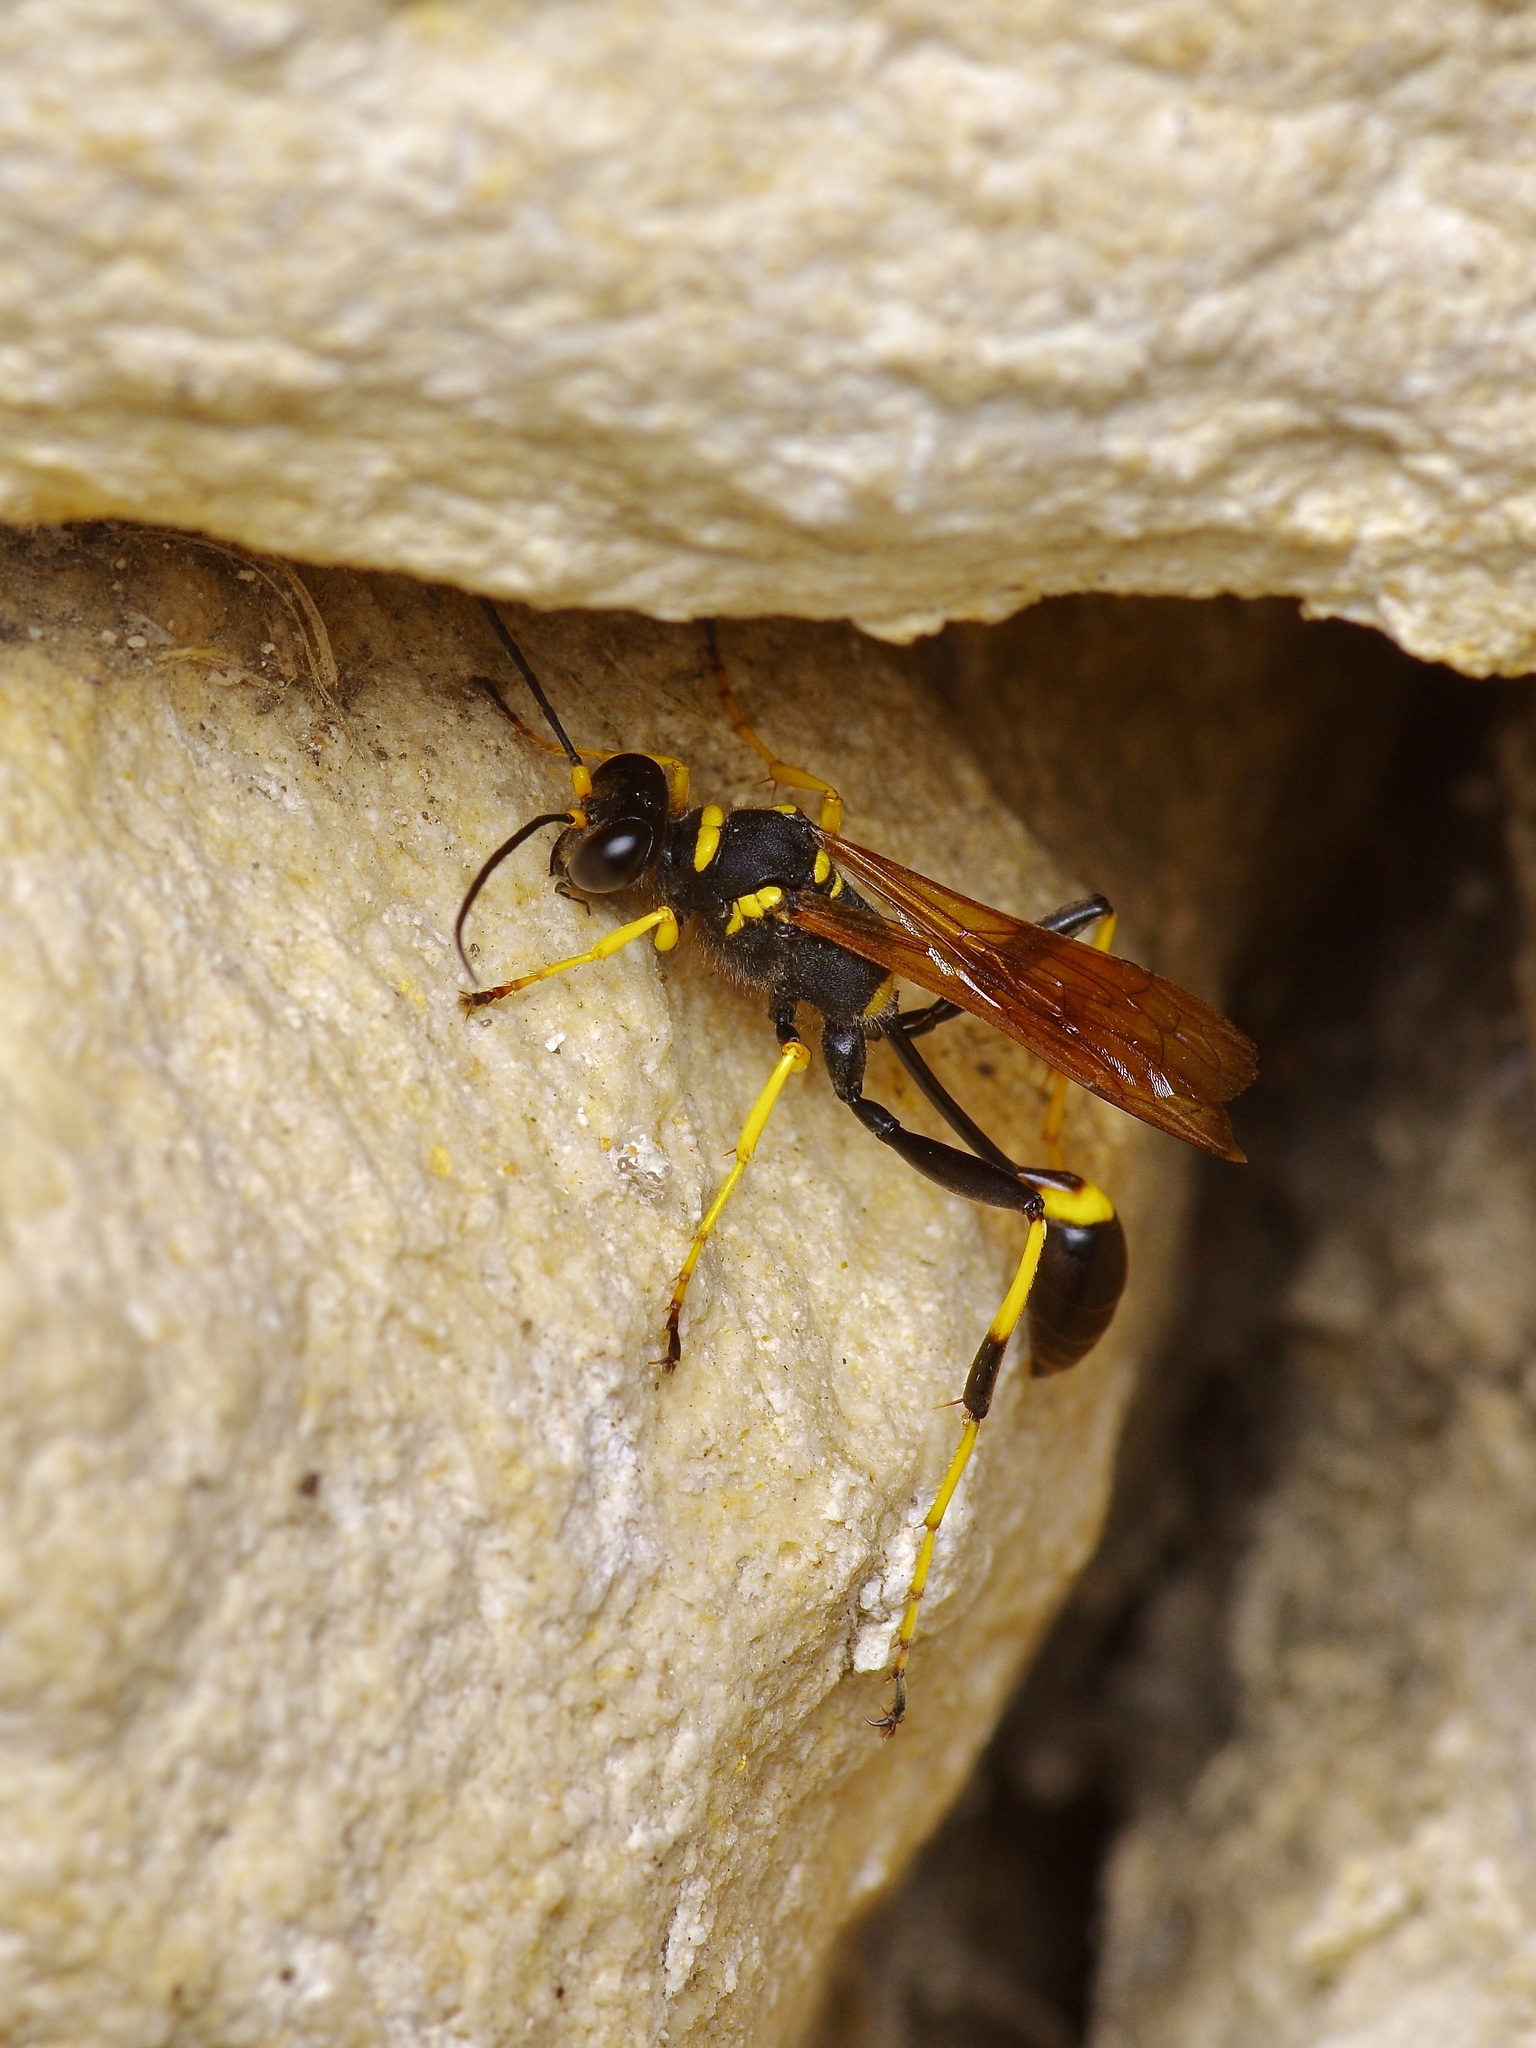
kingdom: Animalia
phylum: Arthropoda
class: Insecta
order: Hymenoptera
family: Sphecidae
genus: Sceliphron
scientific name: Sceliphron caementarium
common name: Mud dauber
